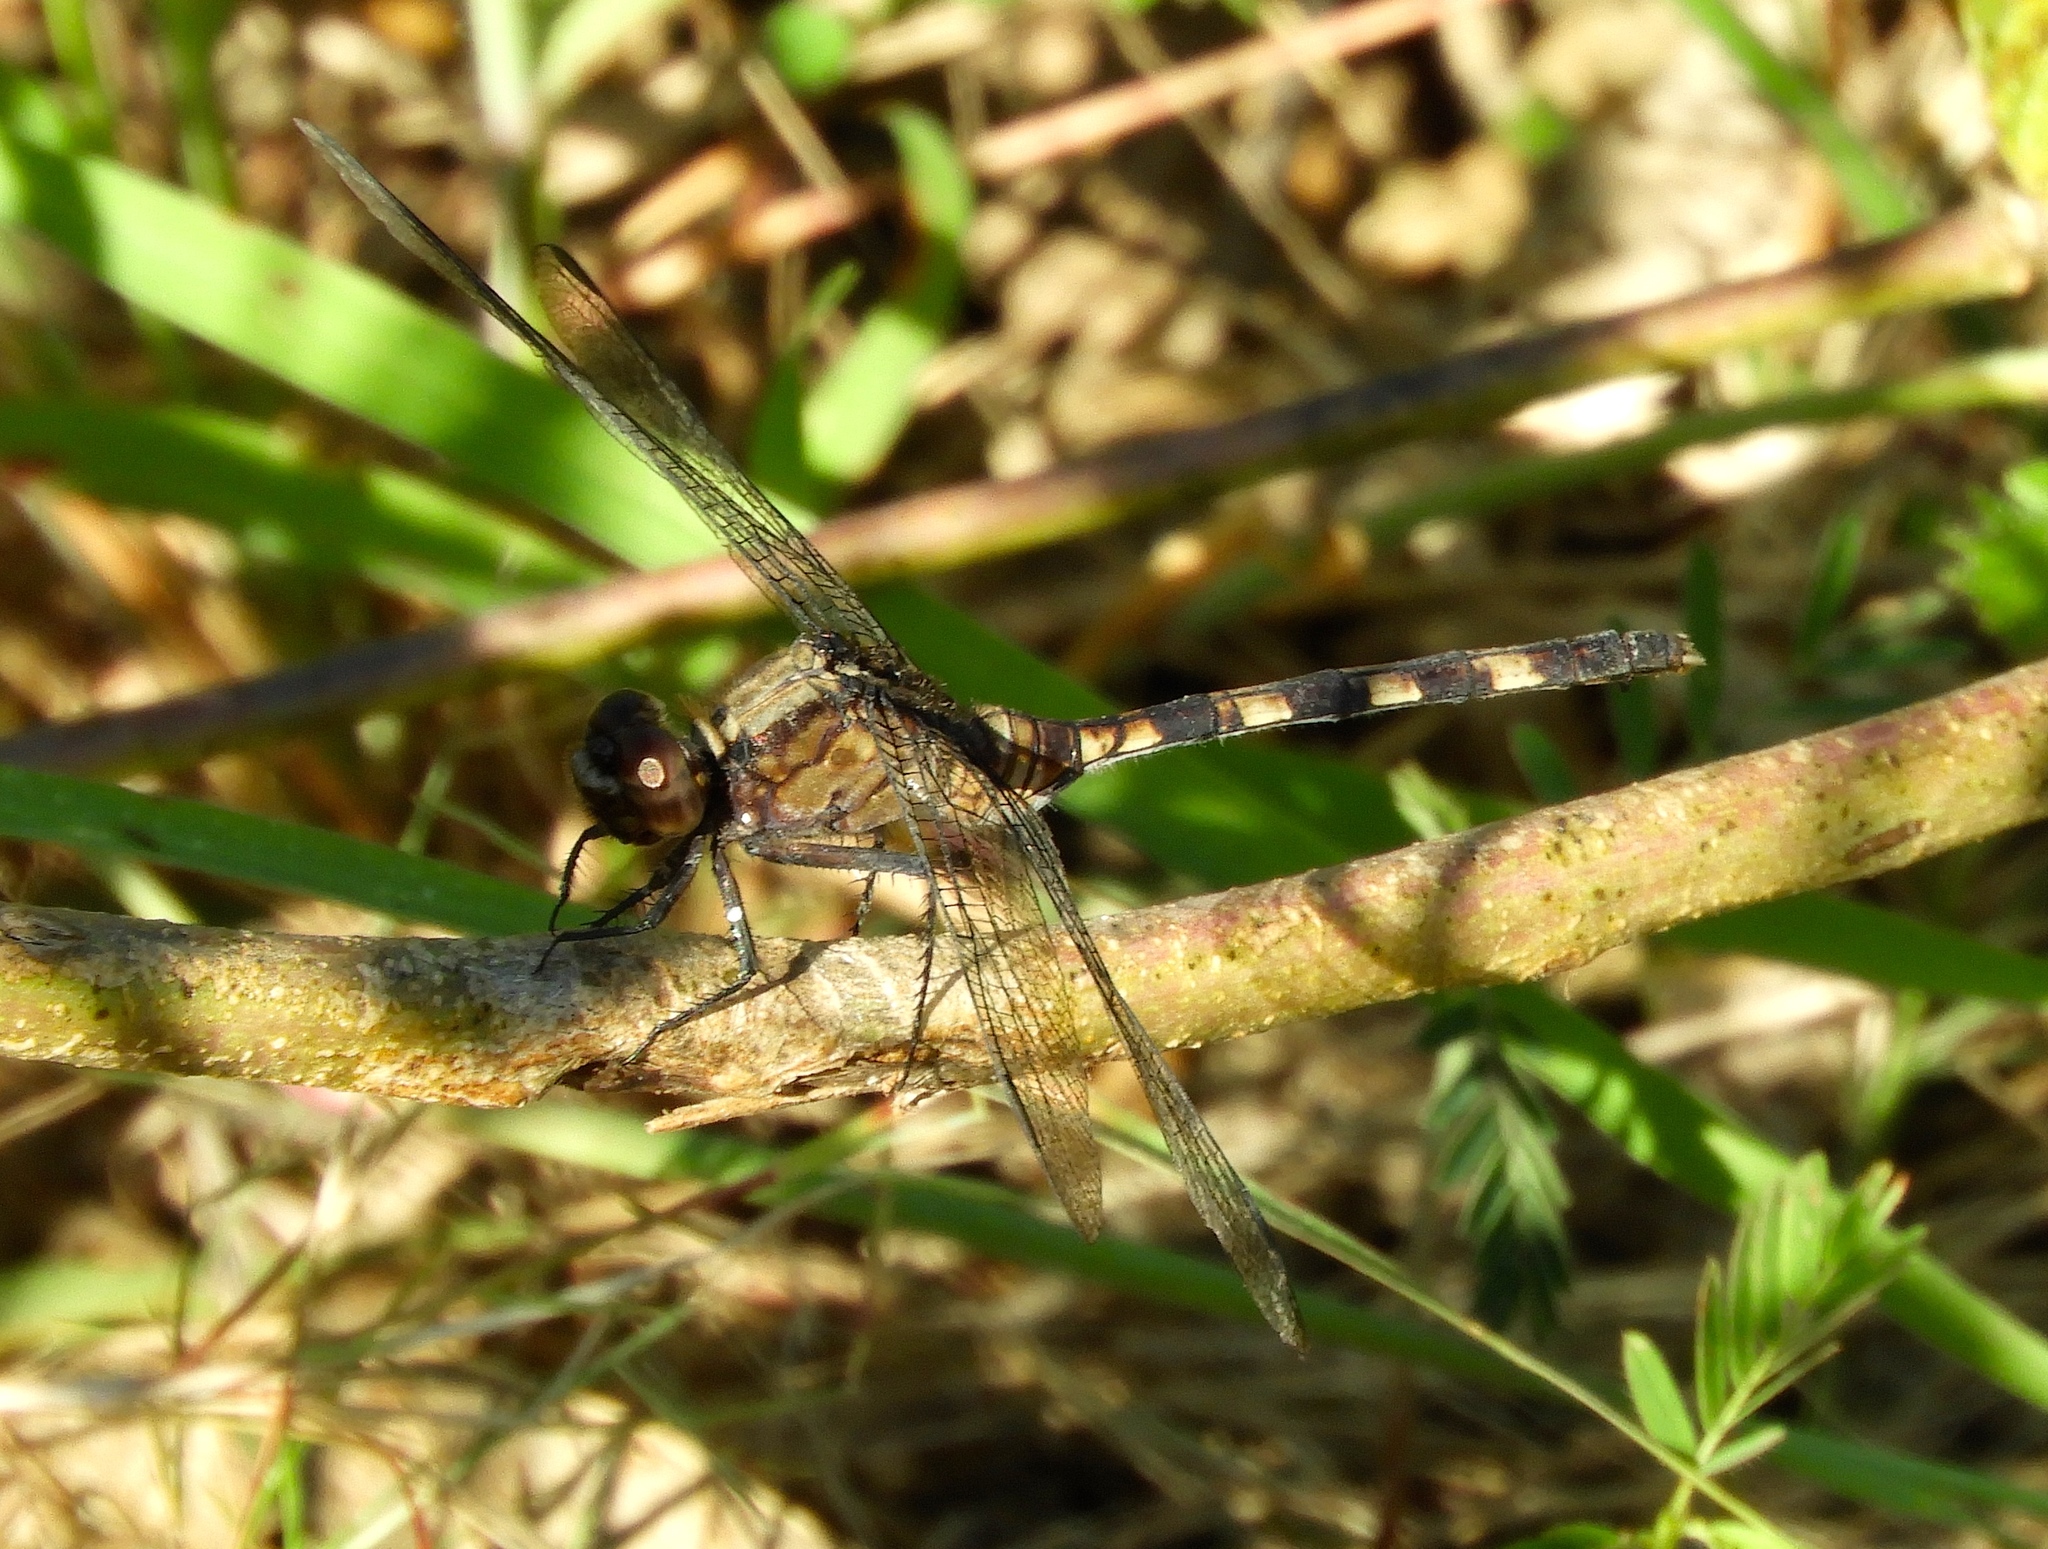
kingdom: Animalia
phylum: Arthropoda
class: Insecta
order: Odonata
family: Libellulidae
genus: Erythemis
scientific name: Erythemis plebeja
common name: Pin-tailed pondhawk
